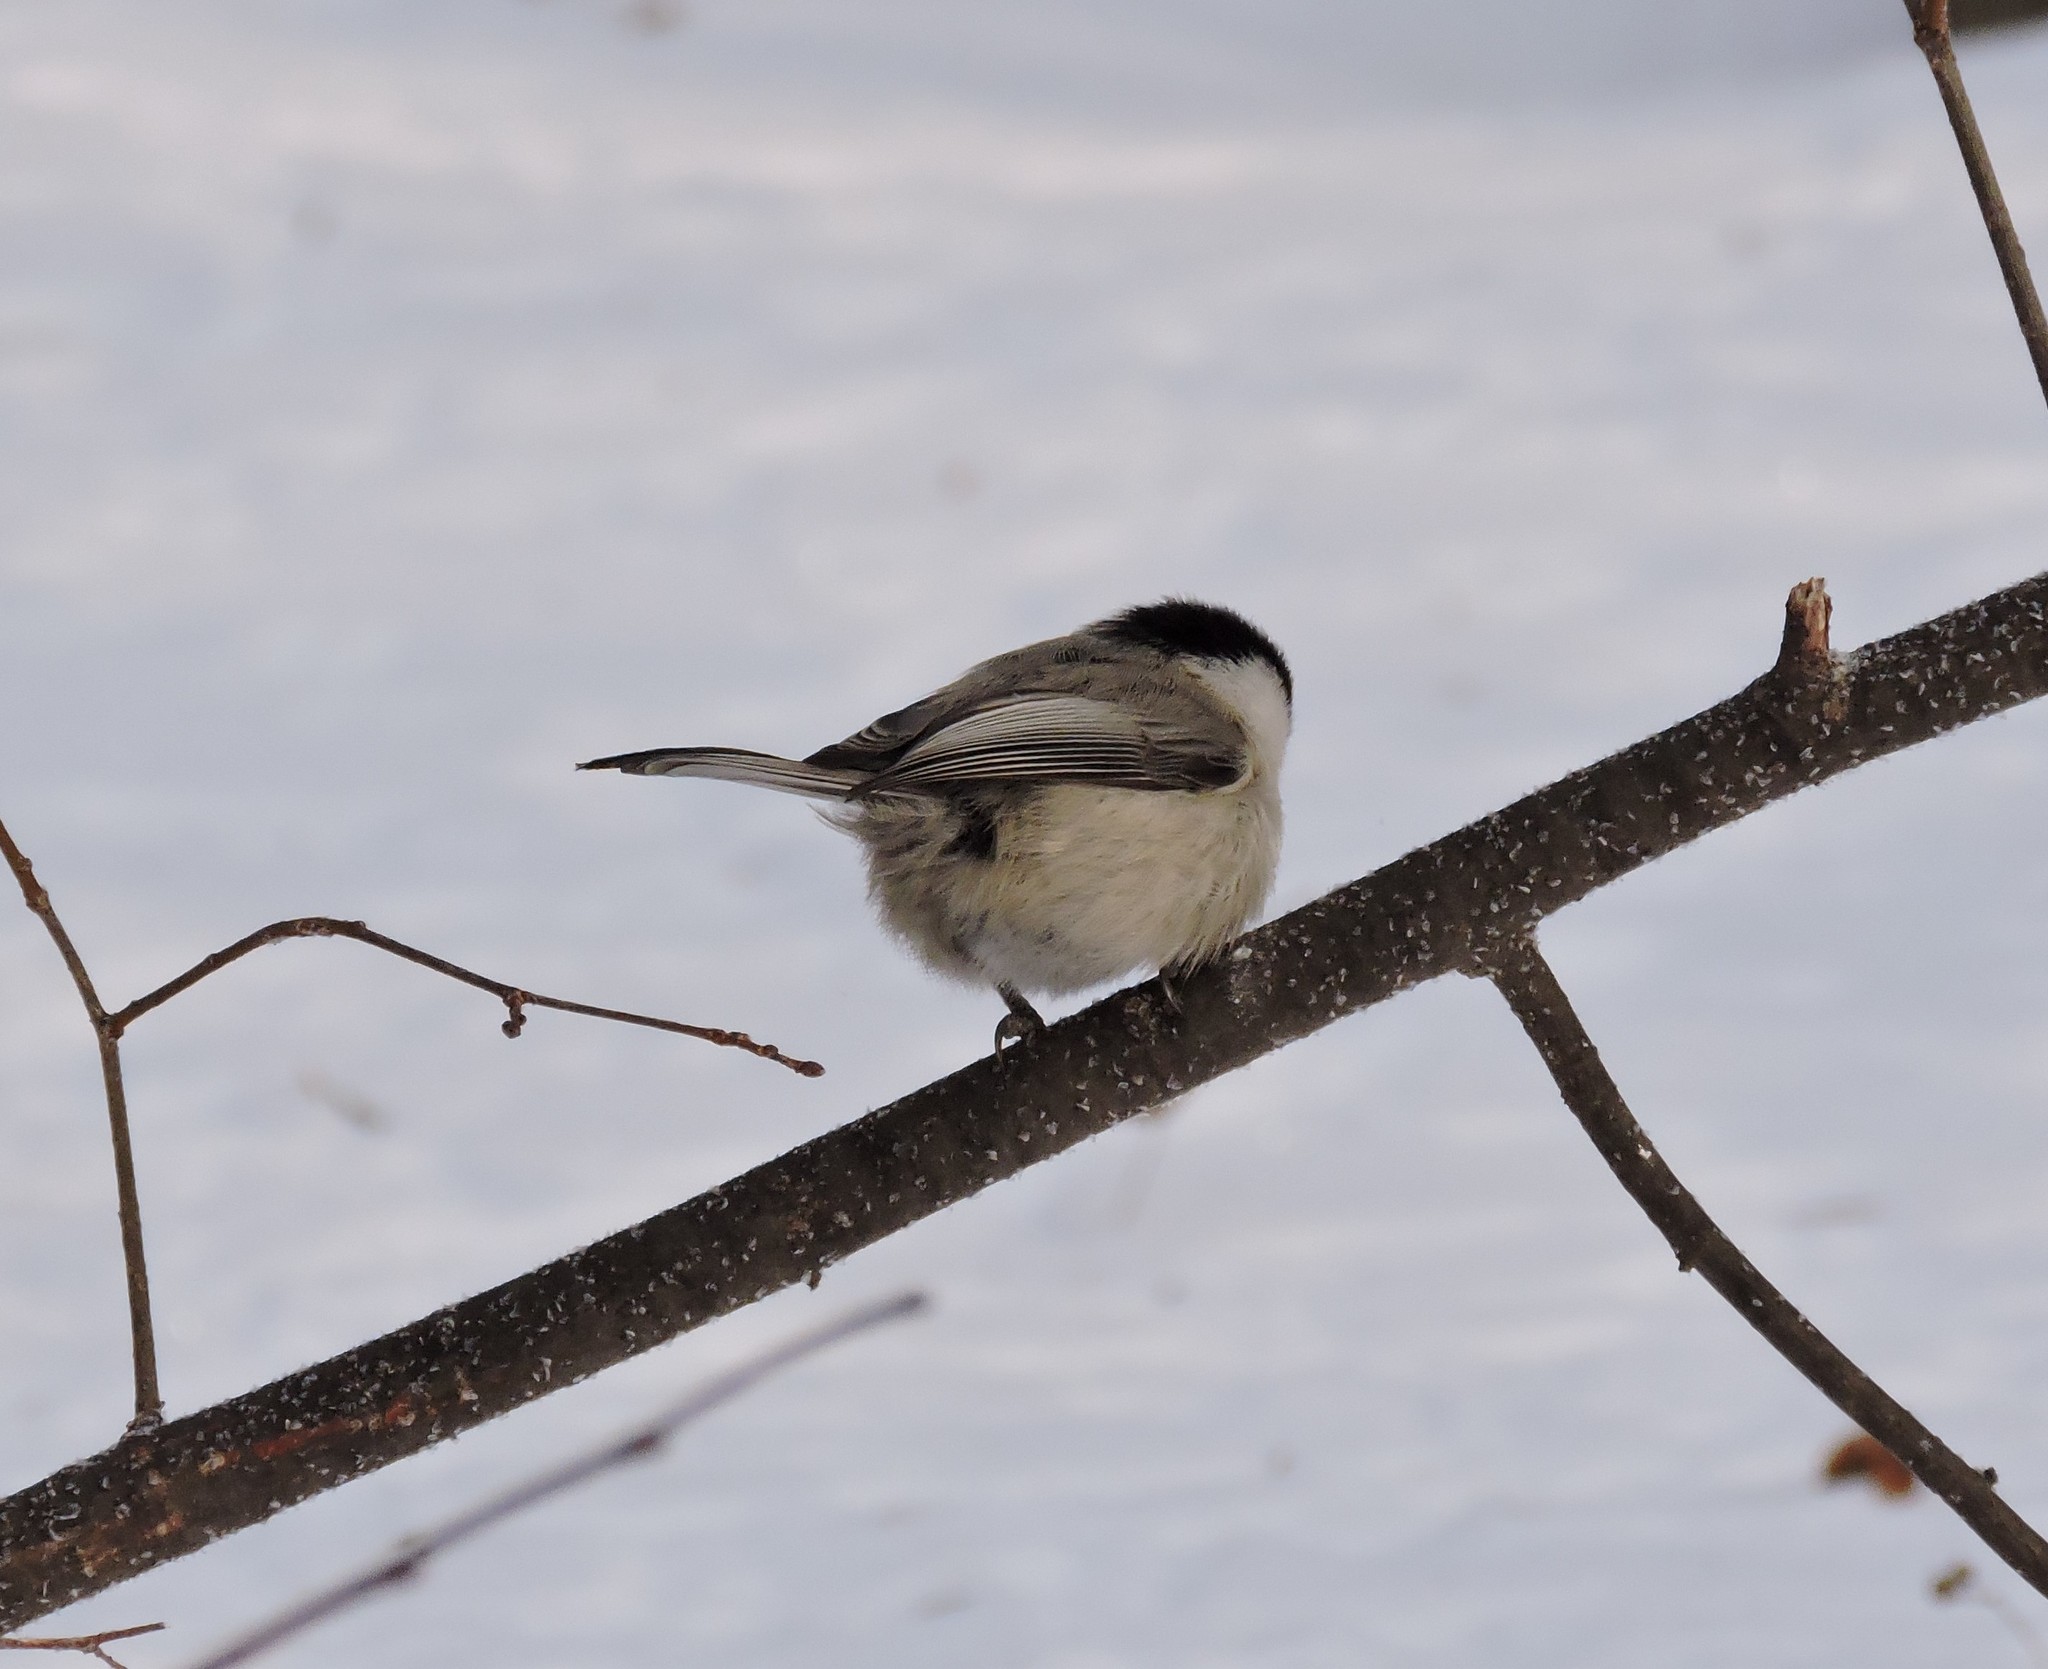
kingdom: Animalia
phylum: Chordata
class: Aves
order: Passeriformes
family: Paridae
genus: Poecile
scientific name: Poecile montanus
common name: Willow tit
